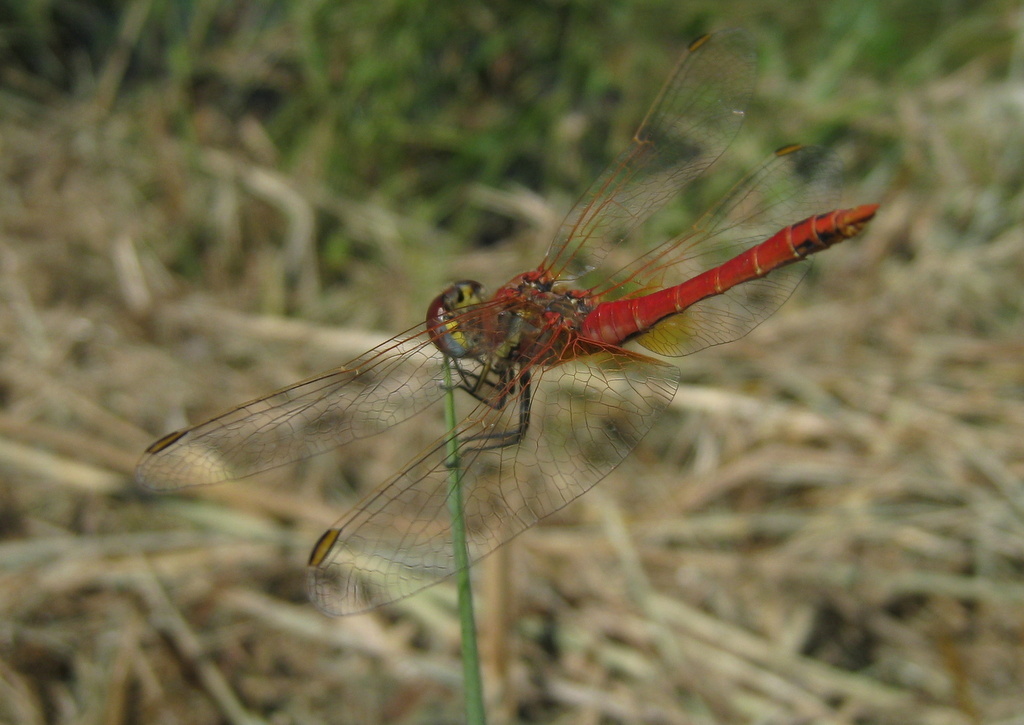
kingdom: Animalia
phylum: Arthropoda
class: Insecta
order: Odonata
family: Libellulidae
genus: Sympetrum
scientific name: Sympetrum fonscolombii
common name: Red-veined darter
